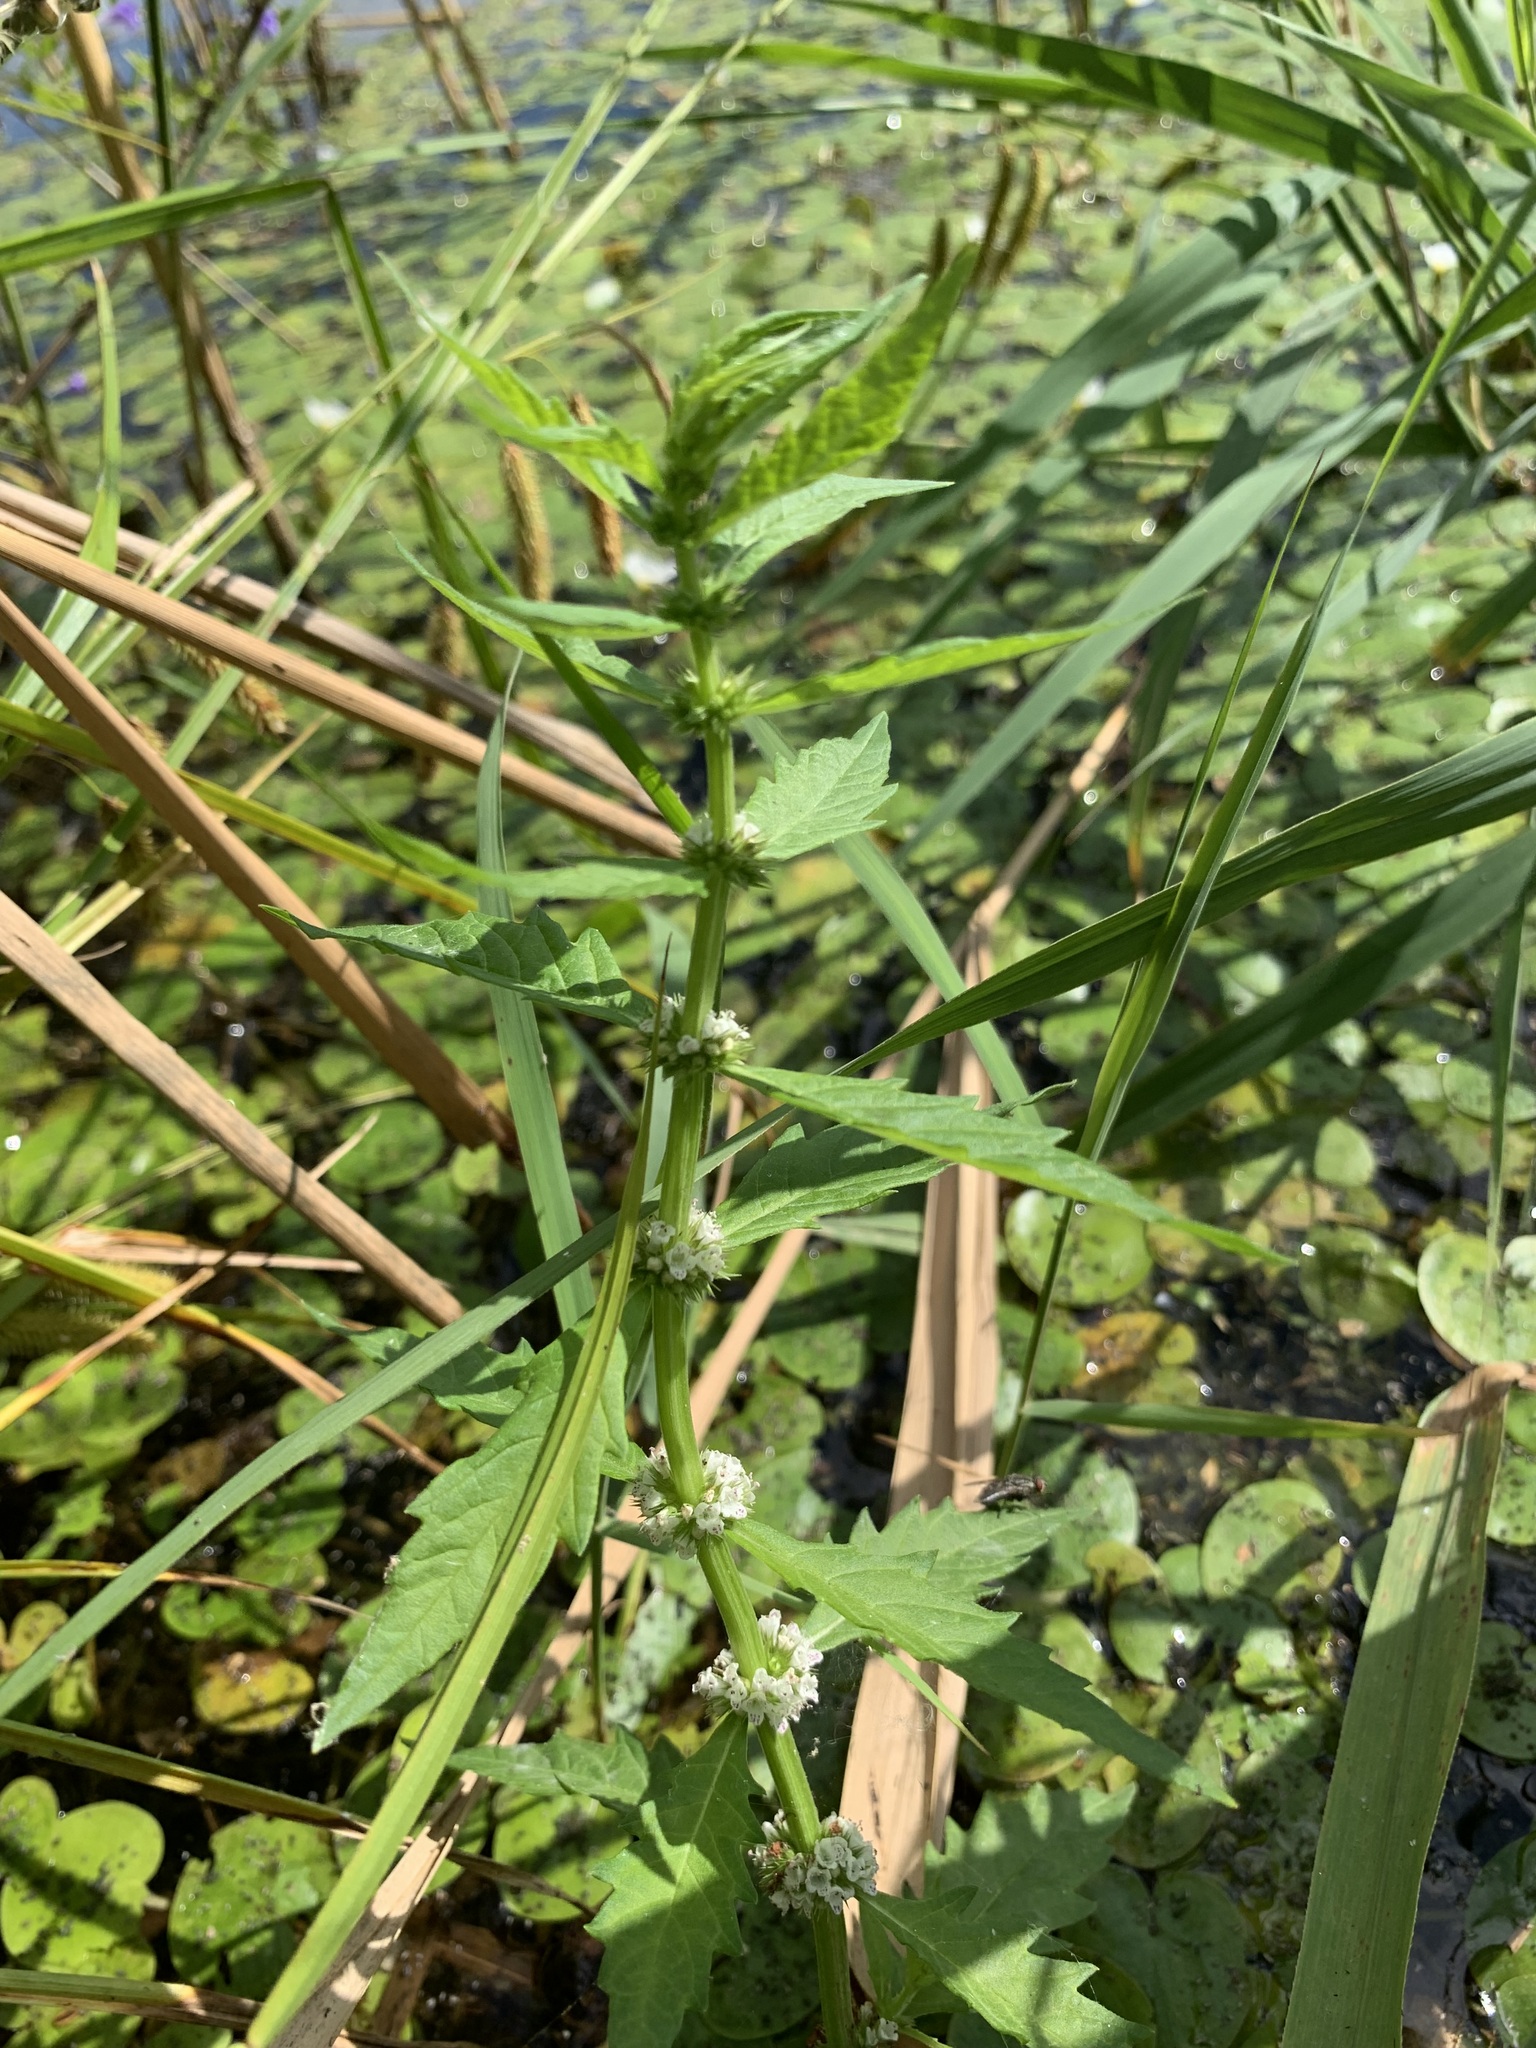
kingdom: Plantae
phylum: Tracheophyta
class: Magnoliopsida
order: Lamiales
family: Lamiaceae
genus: Lycopus
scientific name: Lycopus europaeus
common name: European bugleweed
